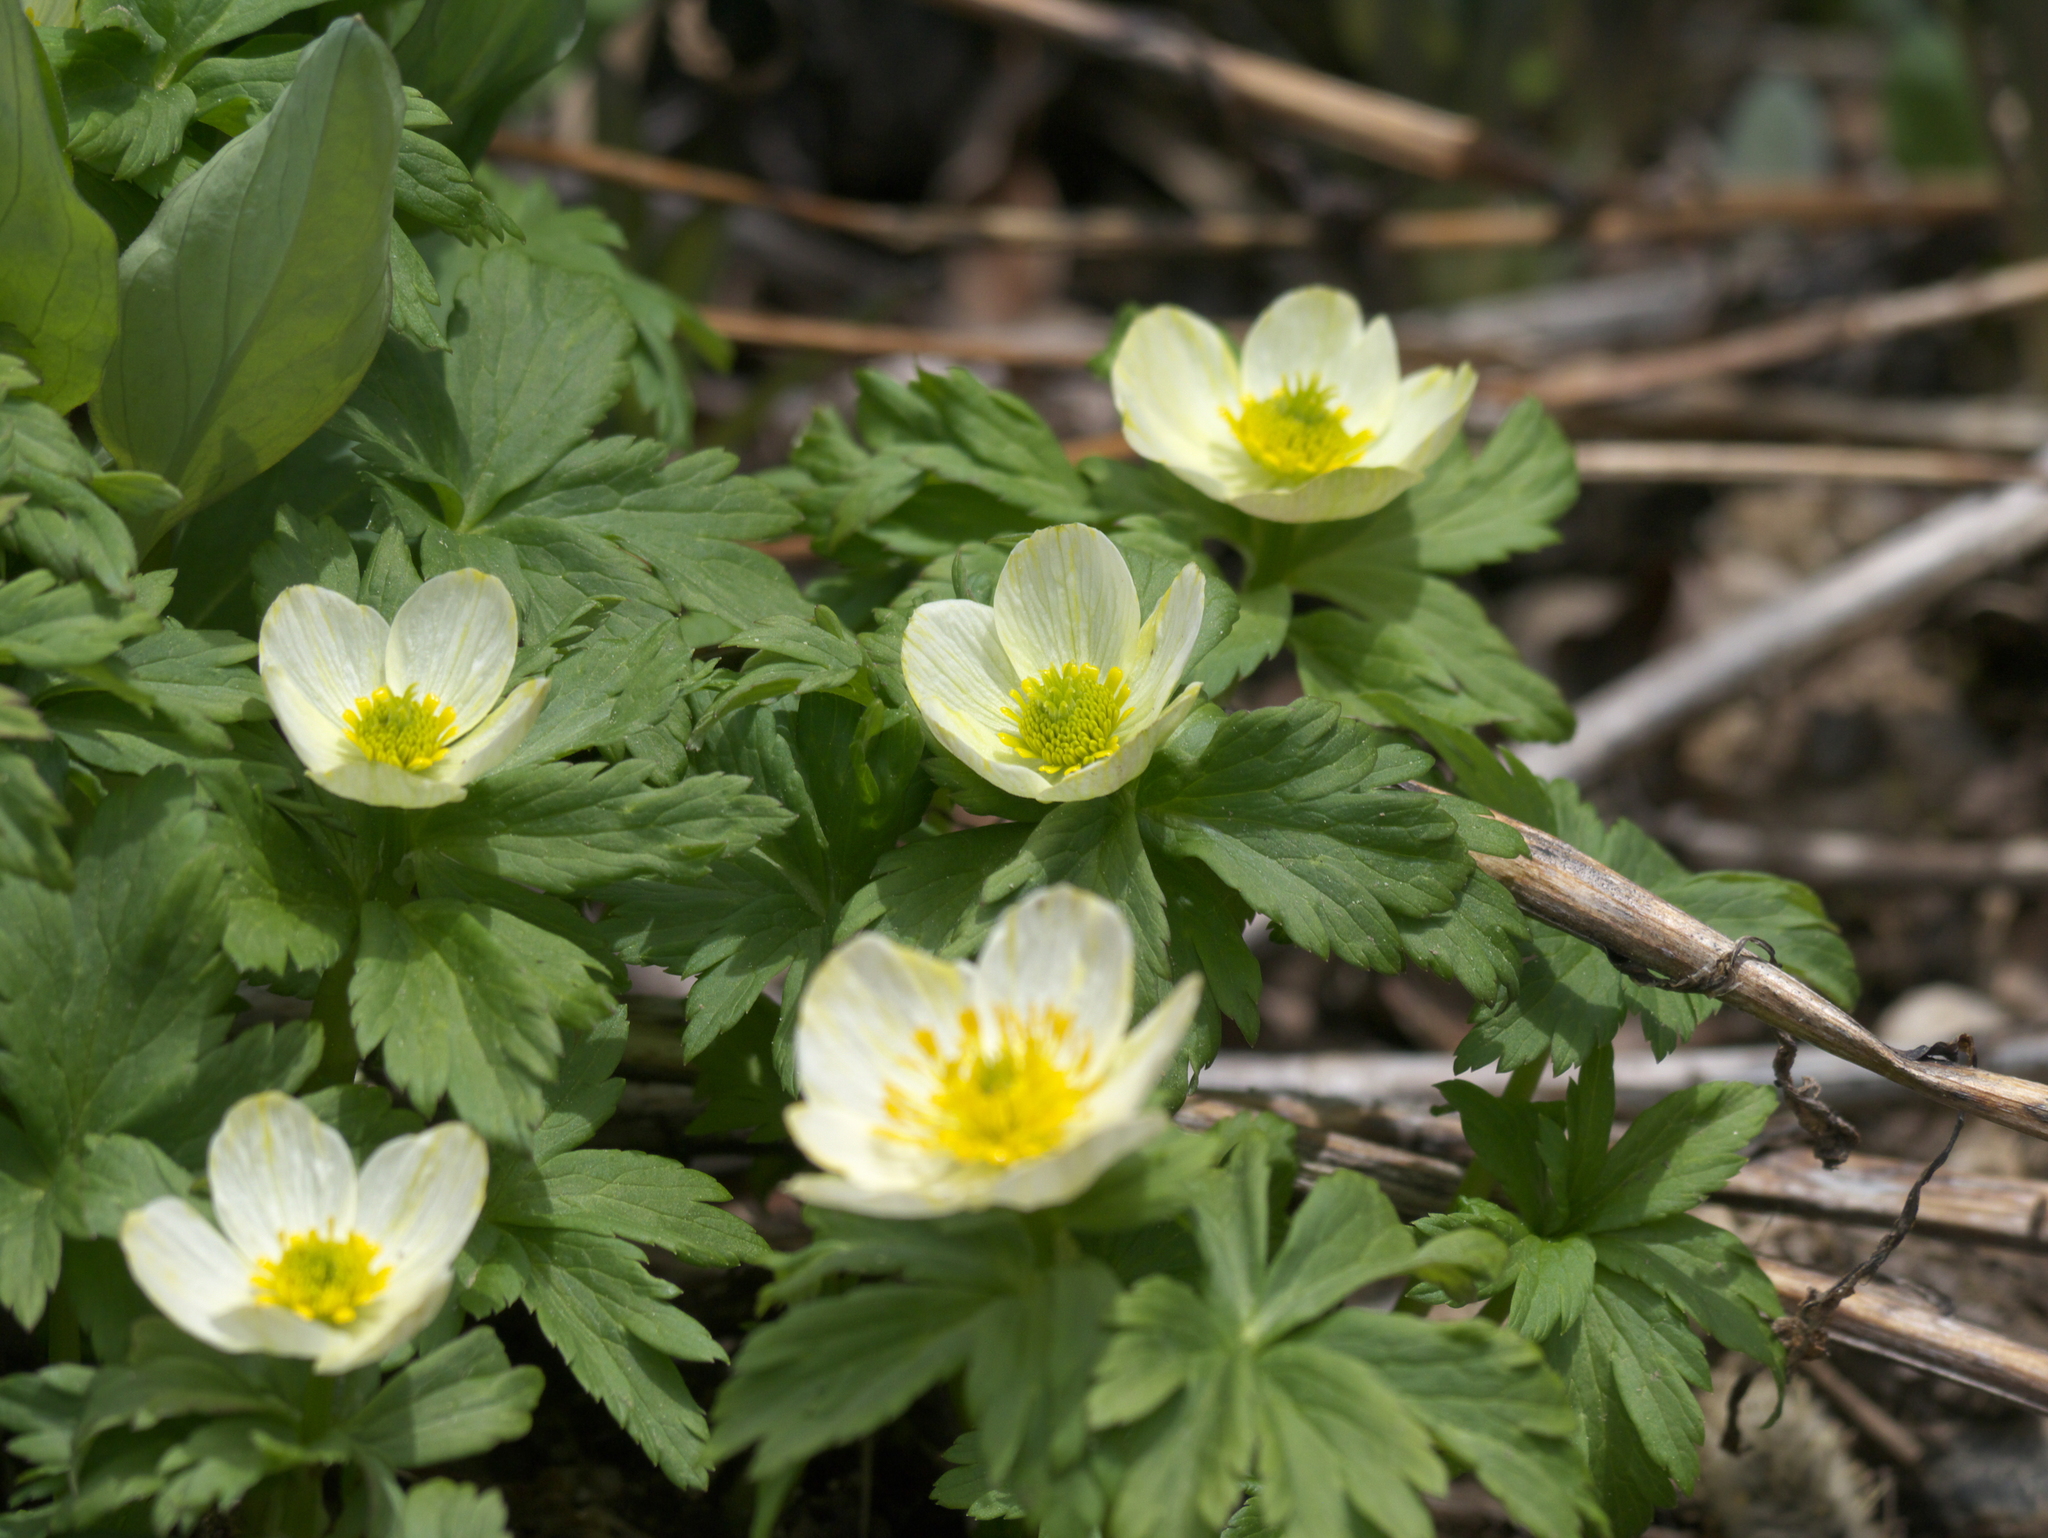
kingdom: Plantae
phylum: Tracheophyta
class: Magnoliopsida
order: Ranunculales
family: Ranunculaceae
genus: Trollius
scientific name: Trollius laxus
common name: American globeflower
